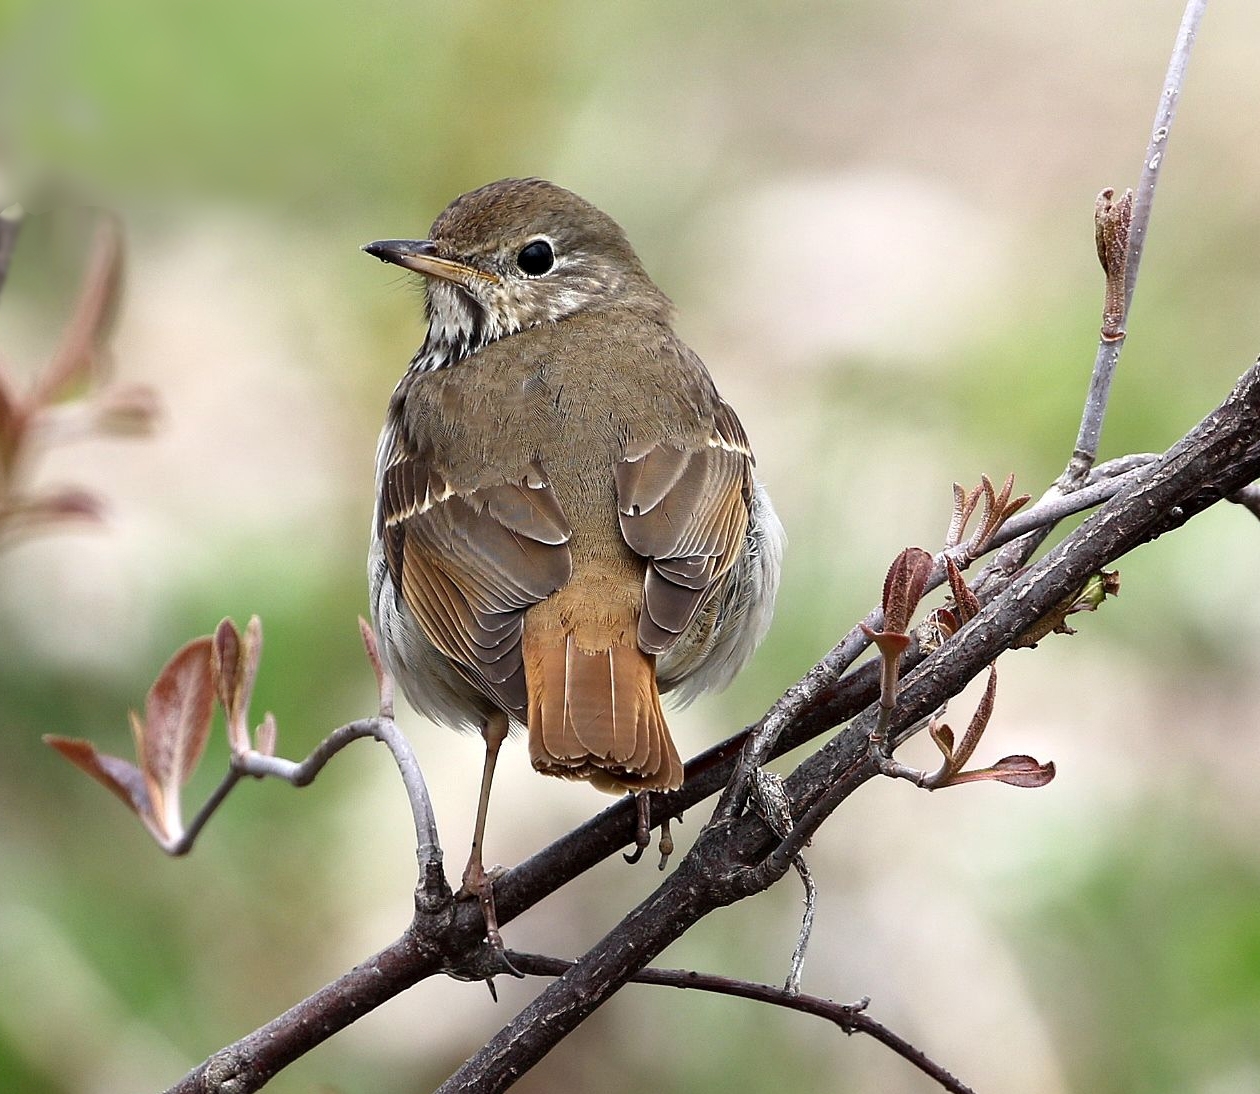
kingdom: Animalia
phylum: Chordata
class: Aves
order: Passeriformes
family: Turdidae
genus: Catharus
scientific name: Catharus guttatus
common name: Hermit thrush
